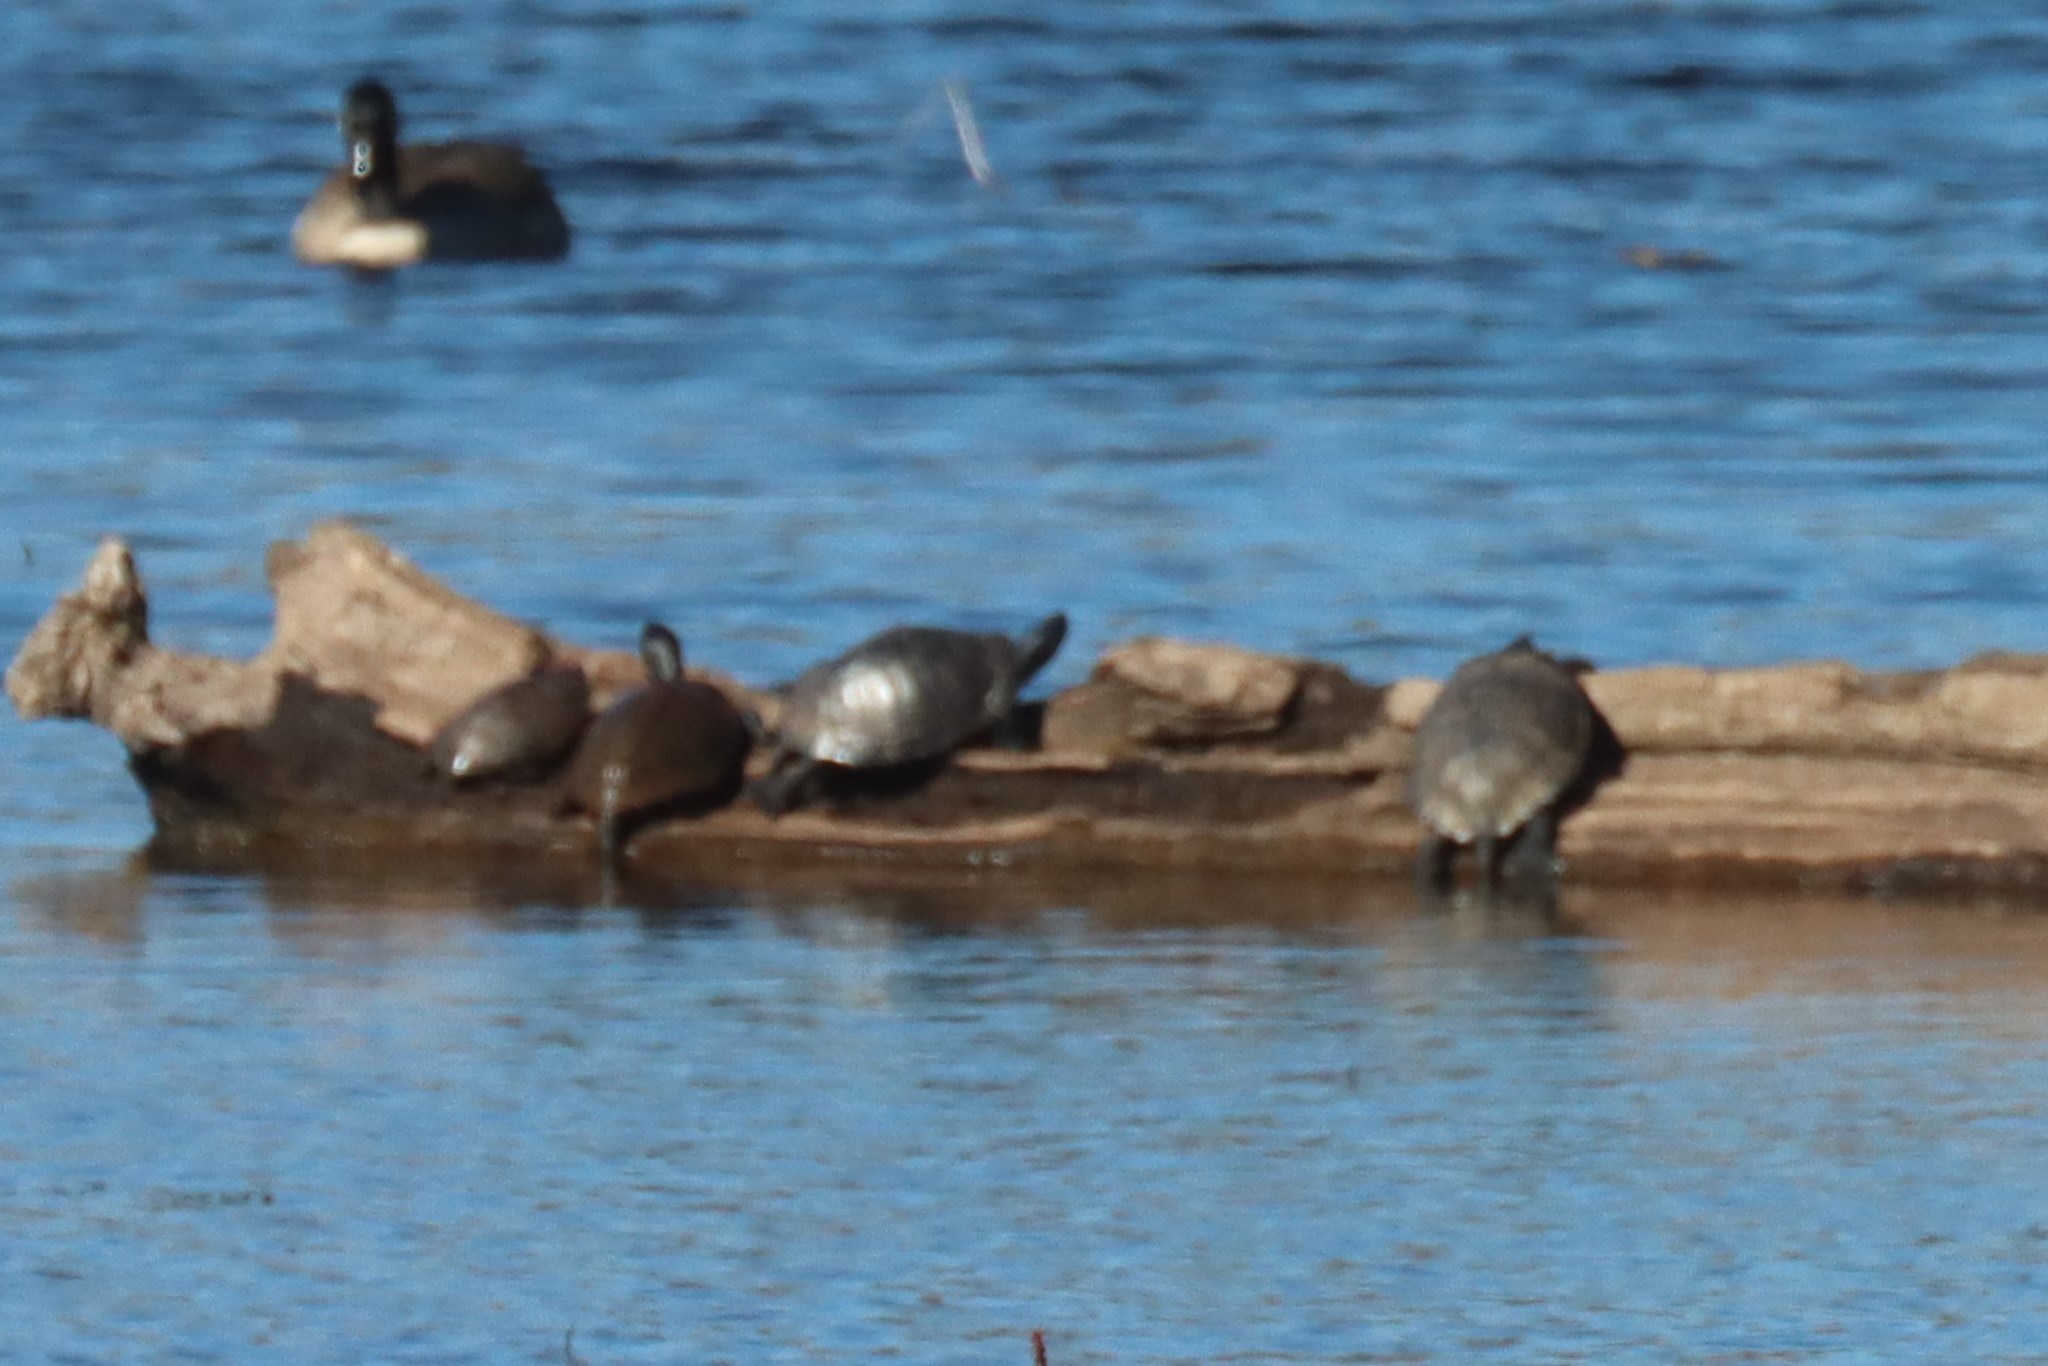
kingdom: Animalia
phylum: Chordata
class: Testudines
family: Emydidae
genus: Trachemys
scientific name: Trachemys scripta
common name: Slider
